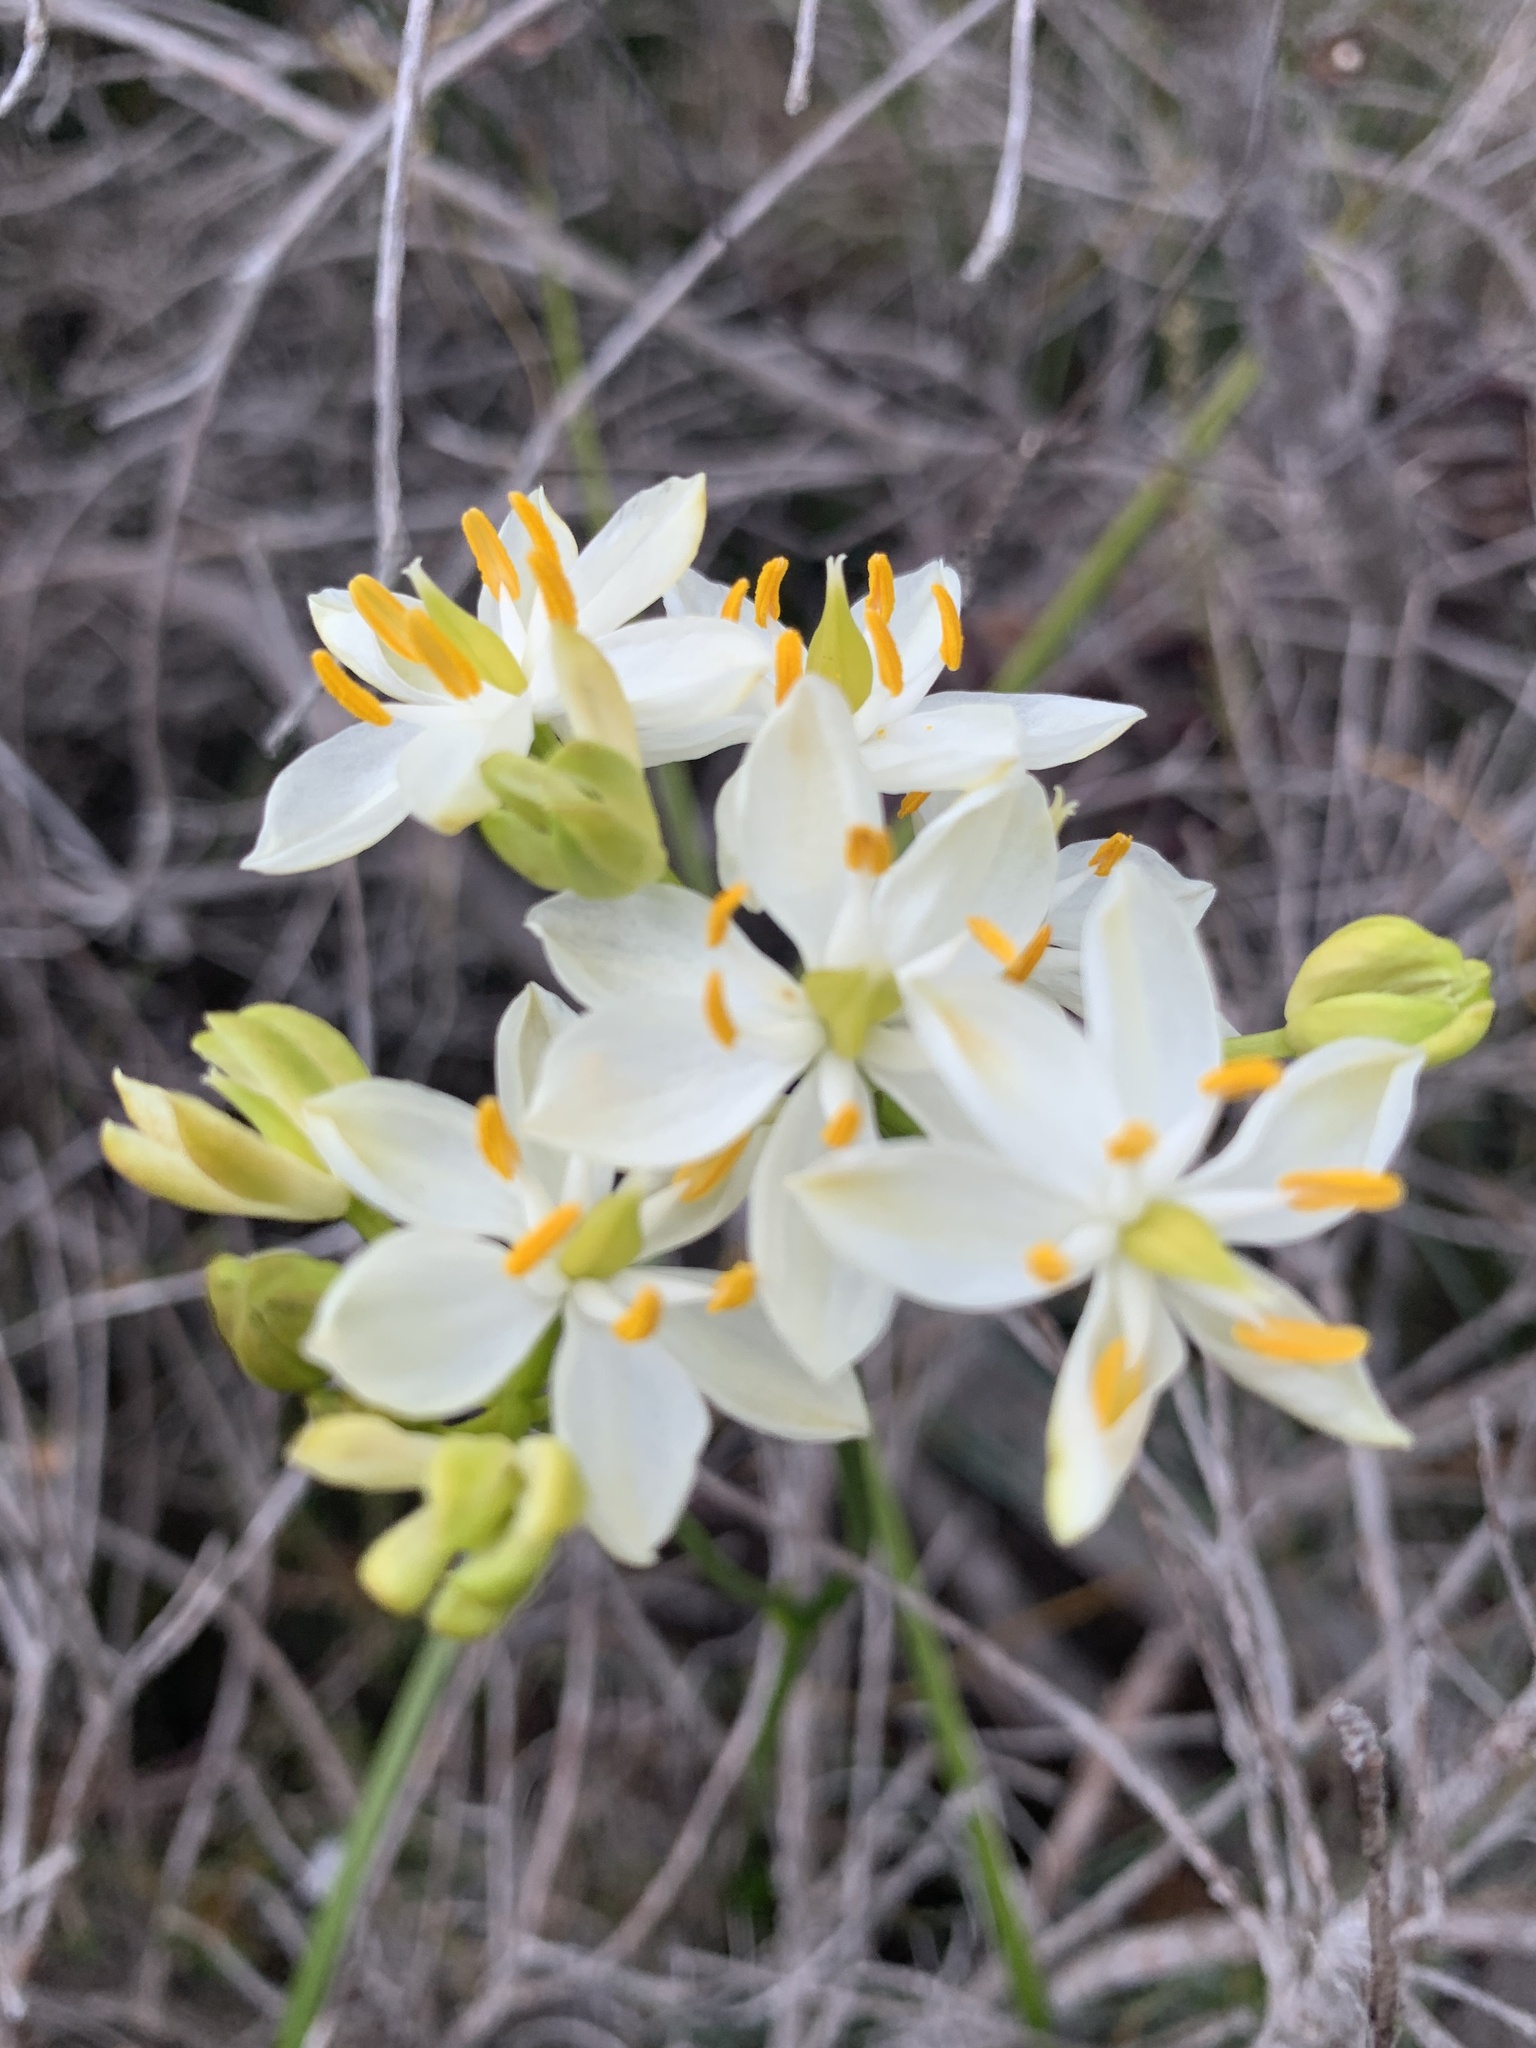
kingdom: Plantae
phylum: Tracheophyta
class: Liliopsida
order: Liliales
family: Colchicaceae
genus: Burchardia
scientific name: Burchardia congesta
